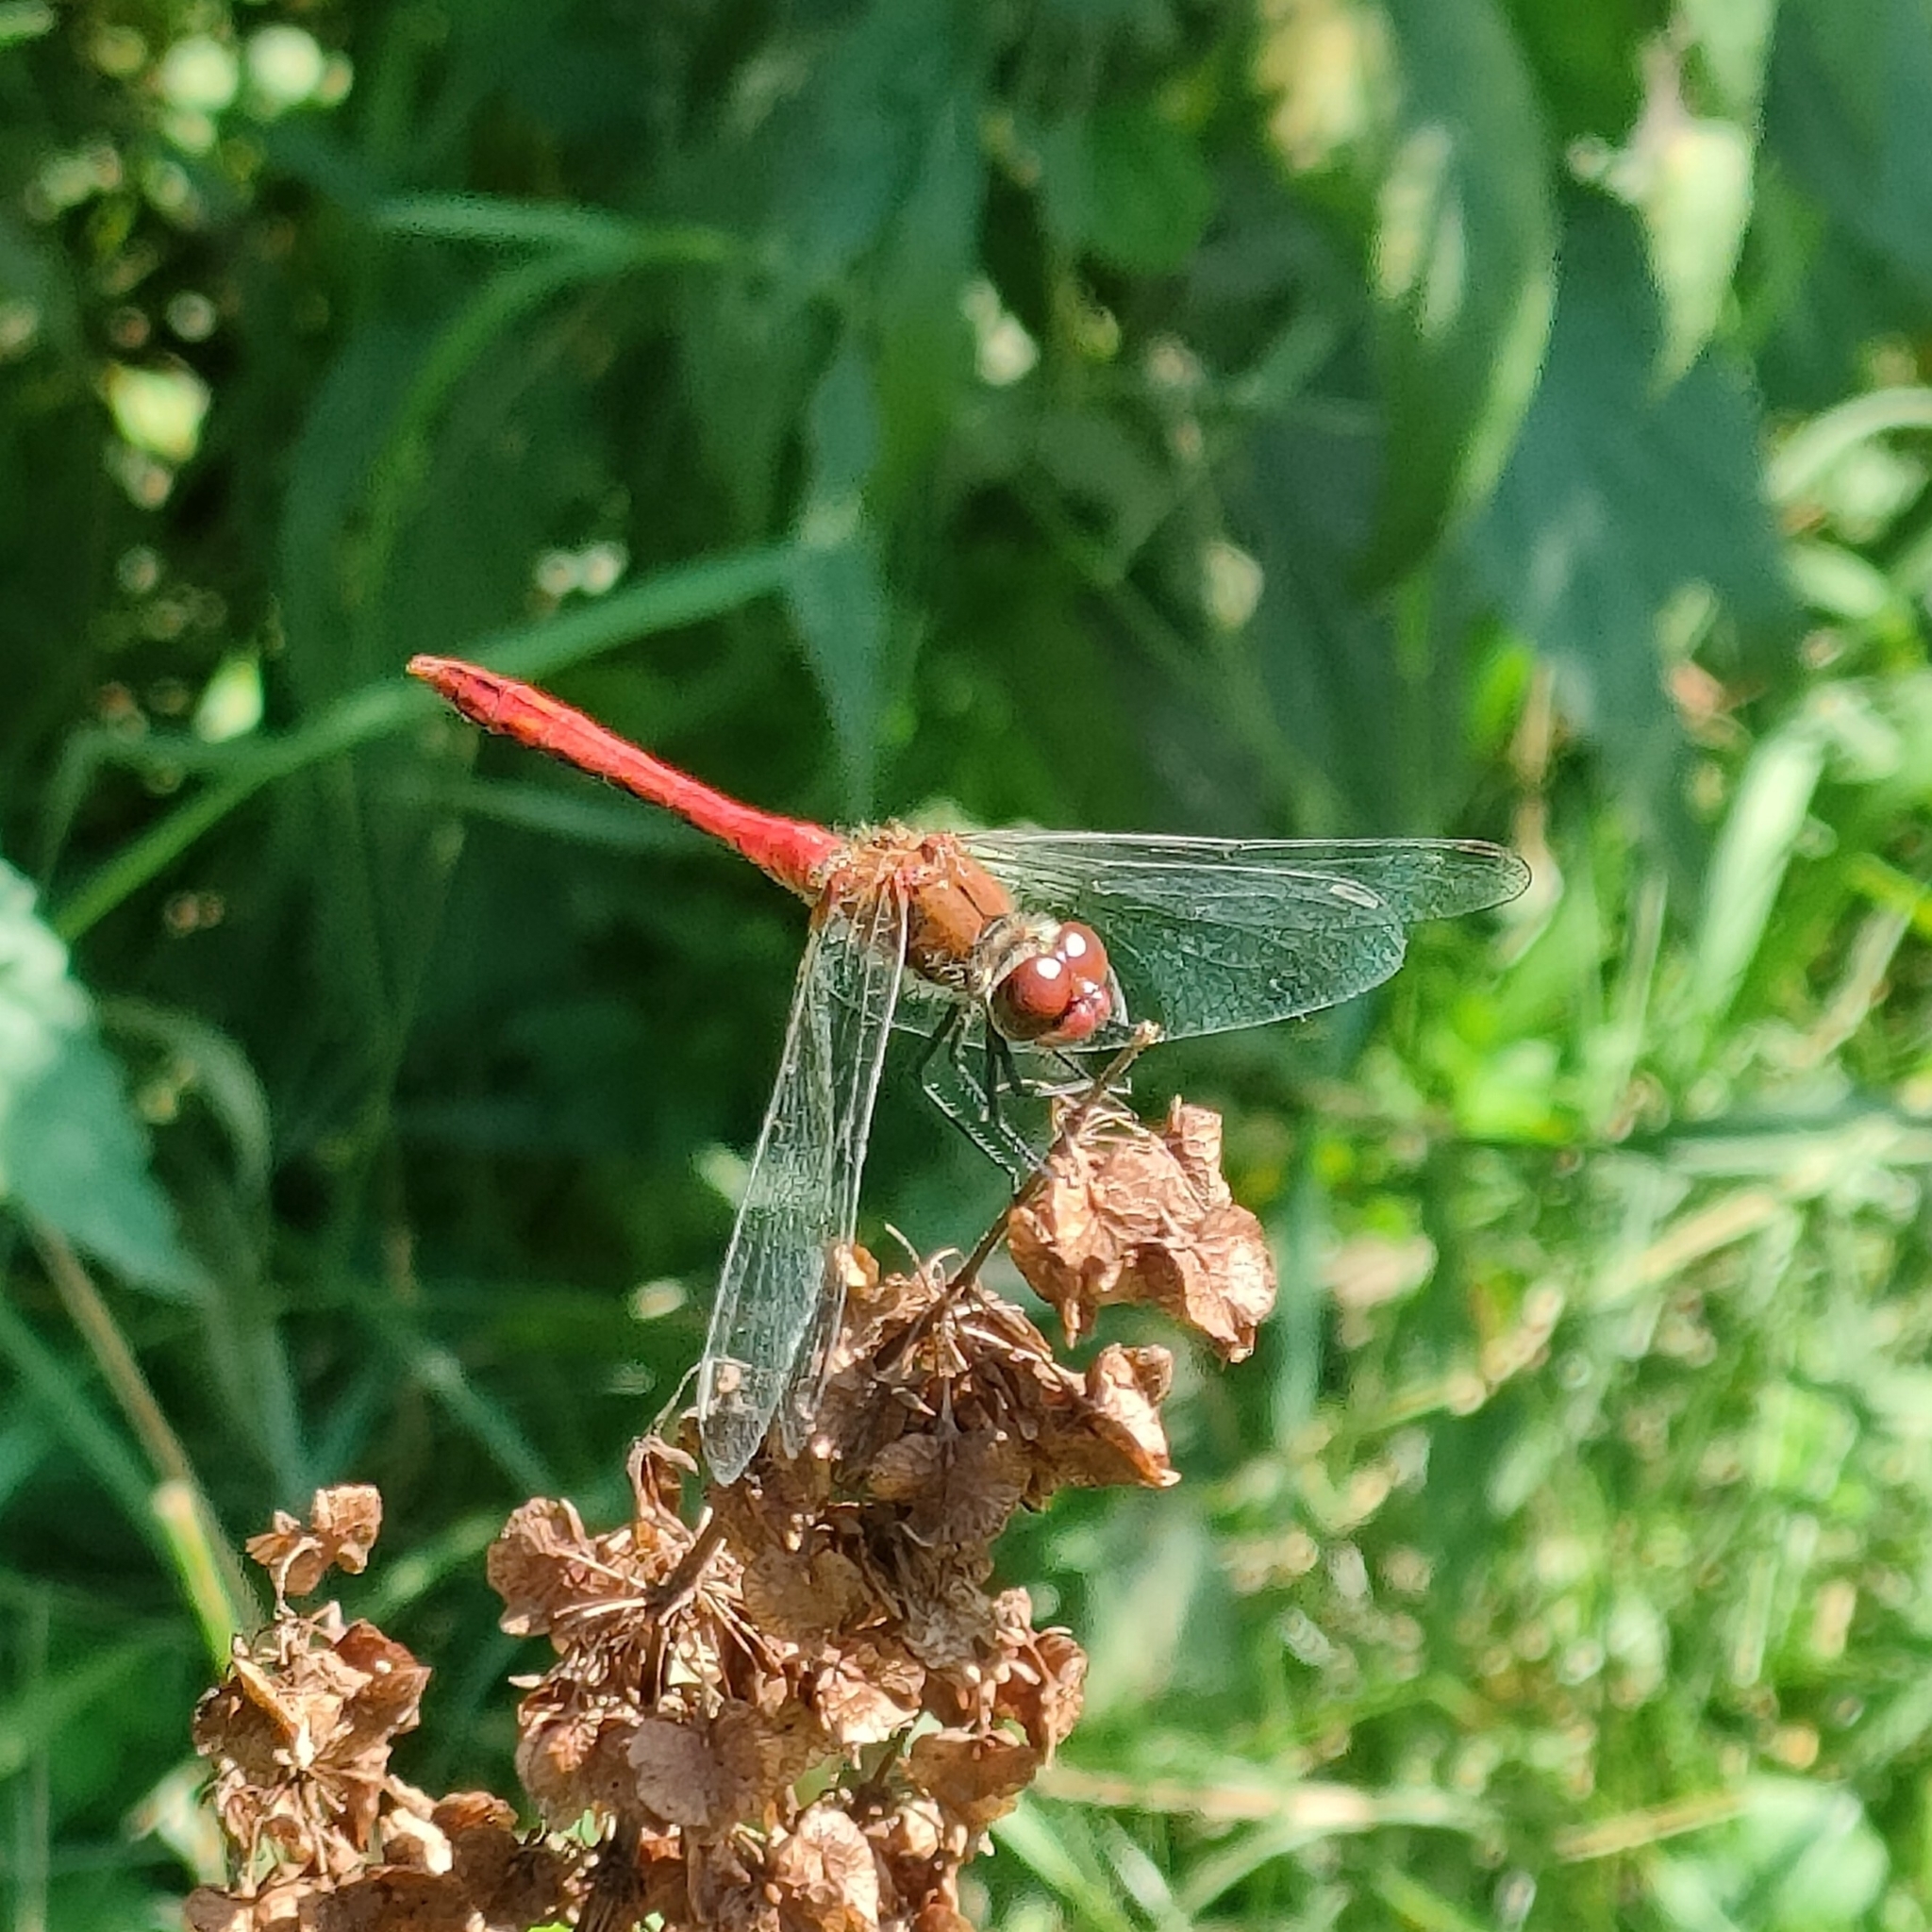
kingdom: Animalia
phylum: Arthropoda
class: Insecta
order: Odonata
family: Libellulidae
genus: Sympetrum
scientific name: Sympetrum sanguineum
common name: Ruddy darter
